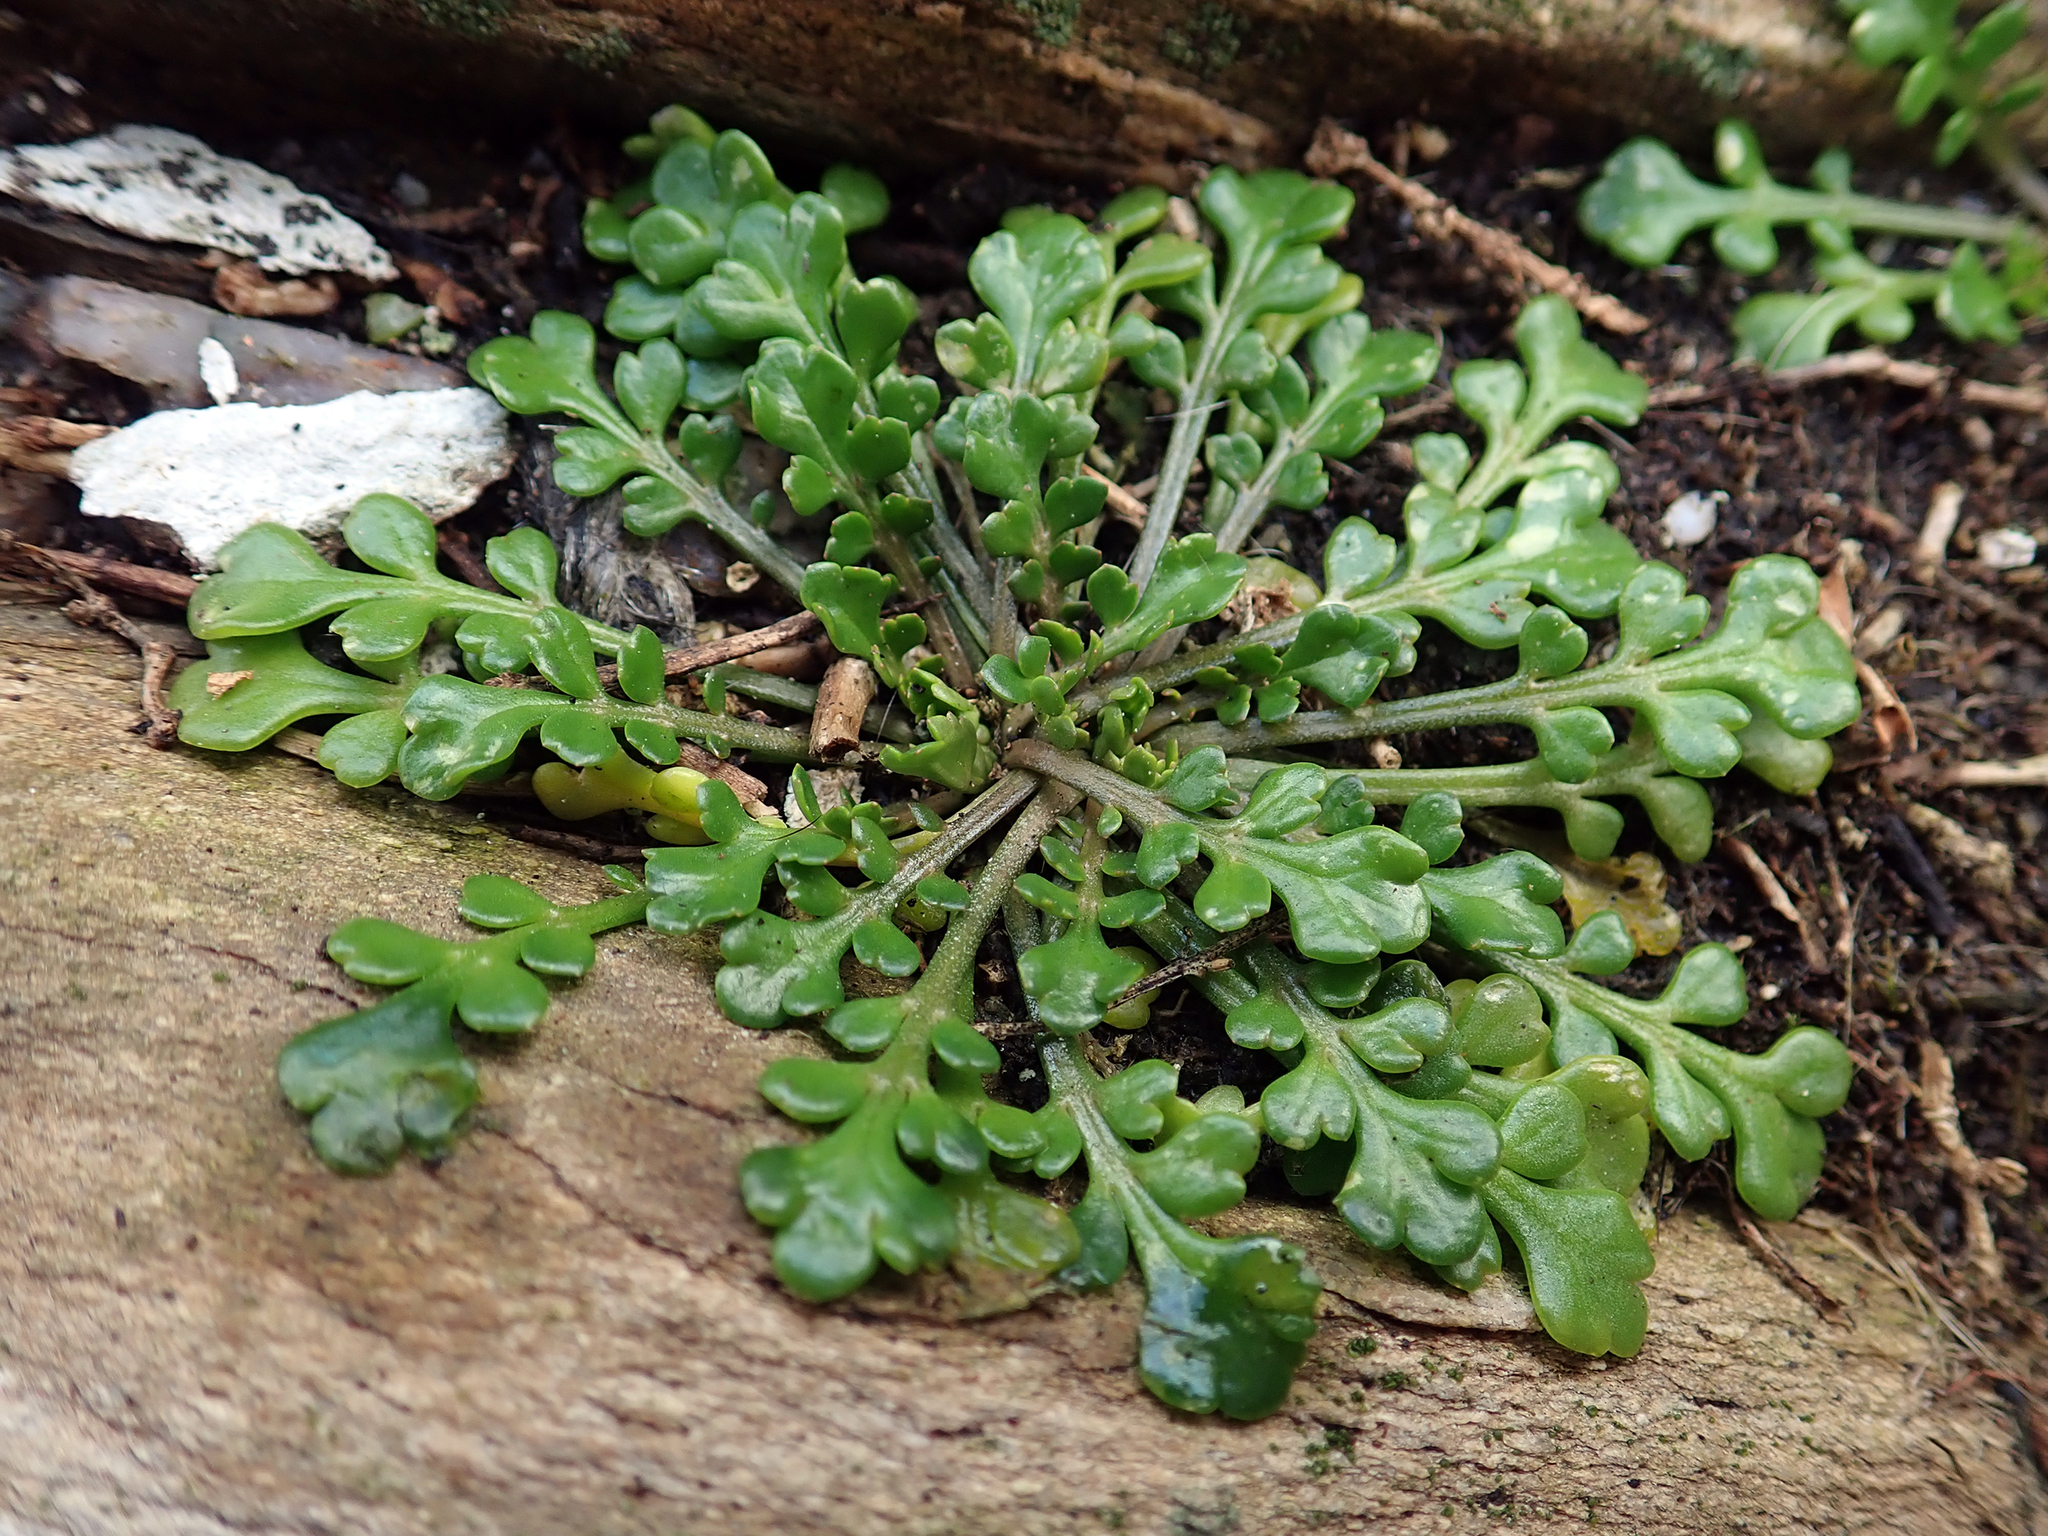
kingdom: Plantae
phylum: Tracheophyta
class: Magnoliopsida
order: Brassicales
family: Brassicaceae
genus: Lepidium
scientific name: Lepidium flexicaule
